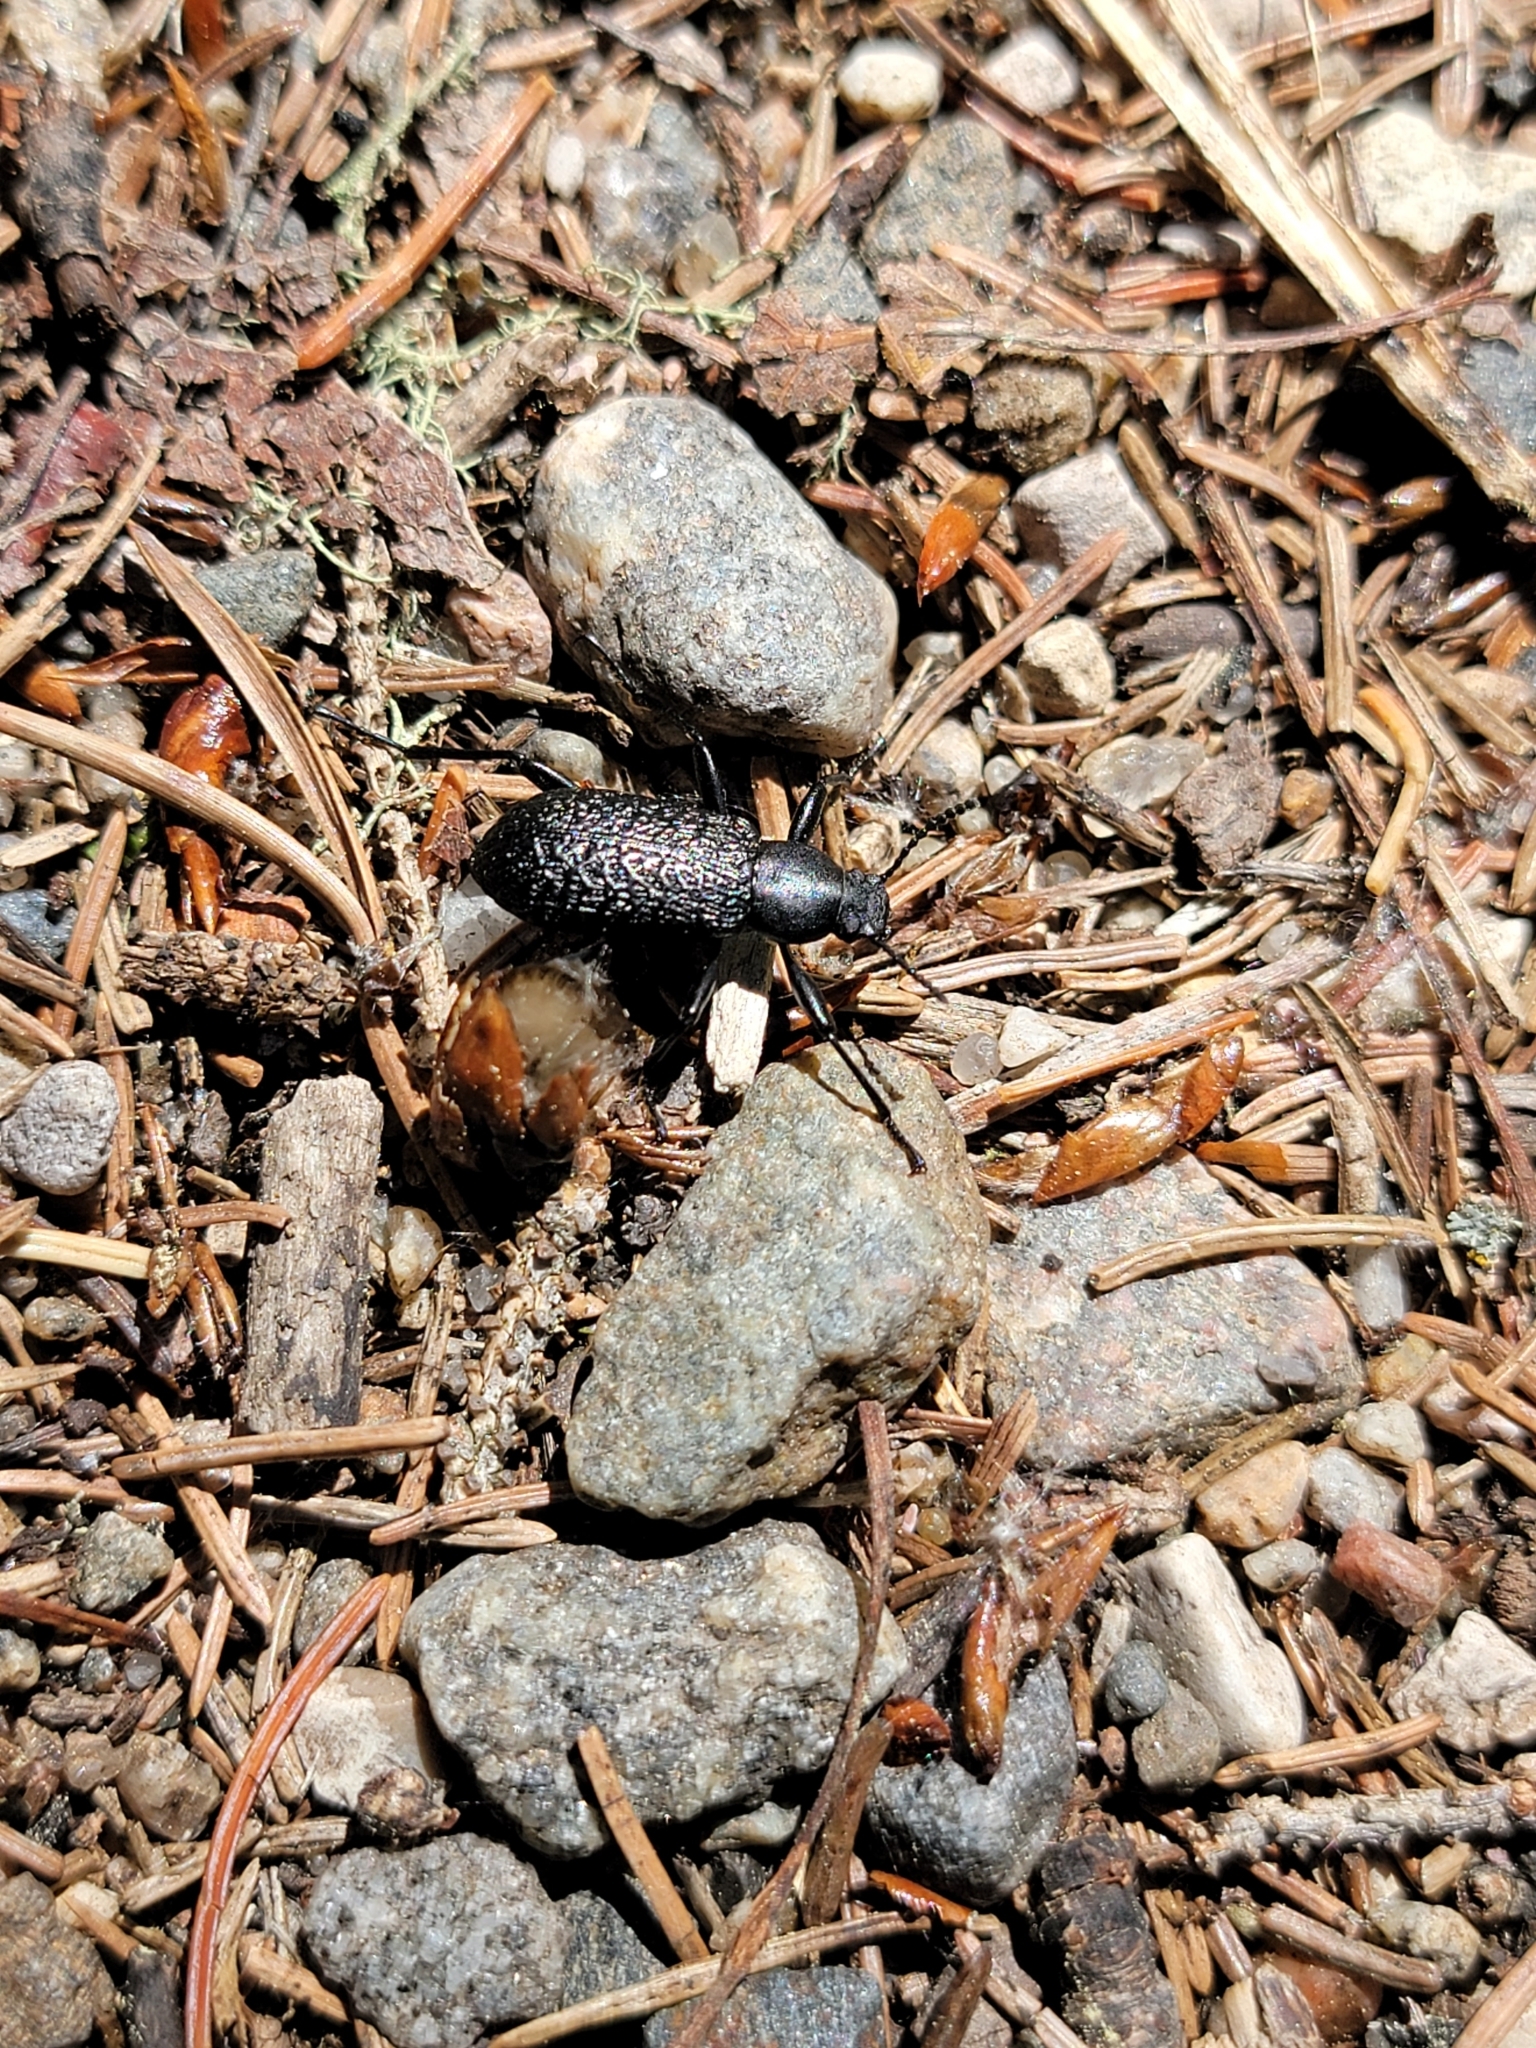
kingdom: Animalia
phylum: Arthropoda
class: Insecta
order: Coleoptera
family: Tenebrionidae
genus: Upis
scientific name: Upis ceramboides
